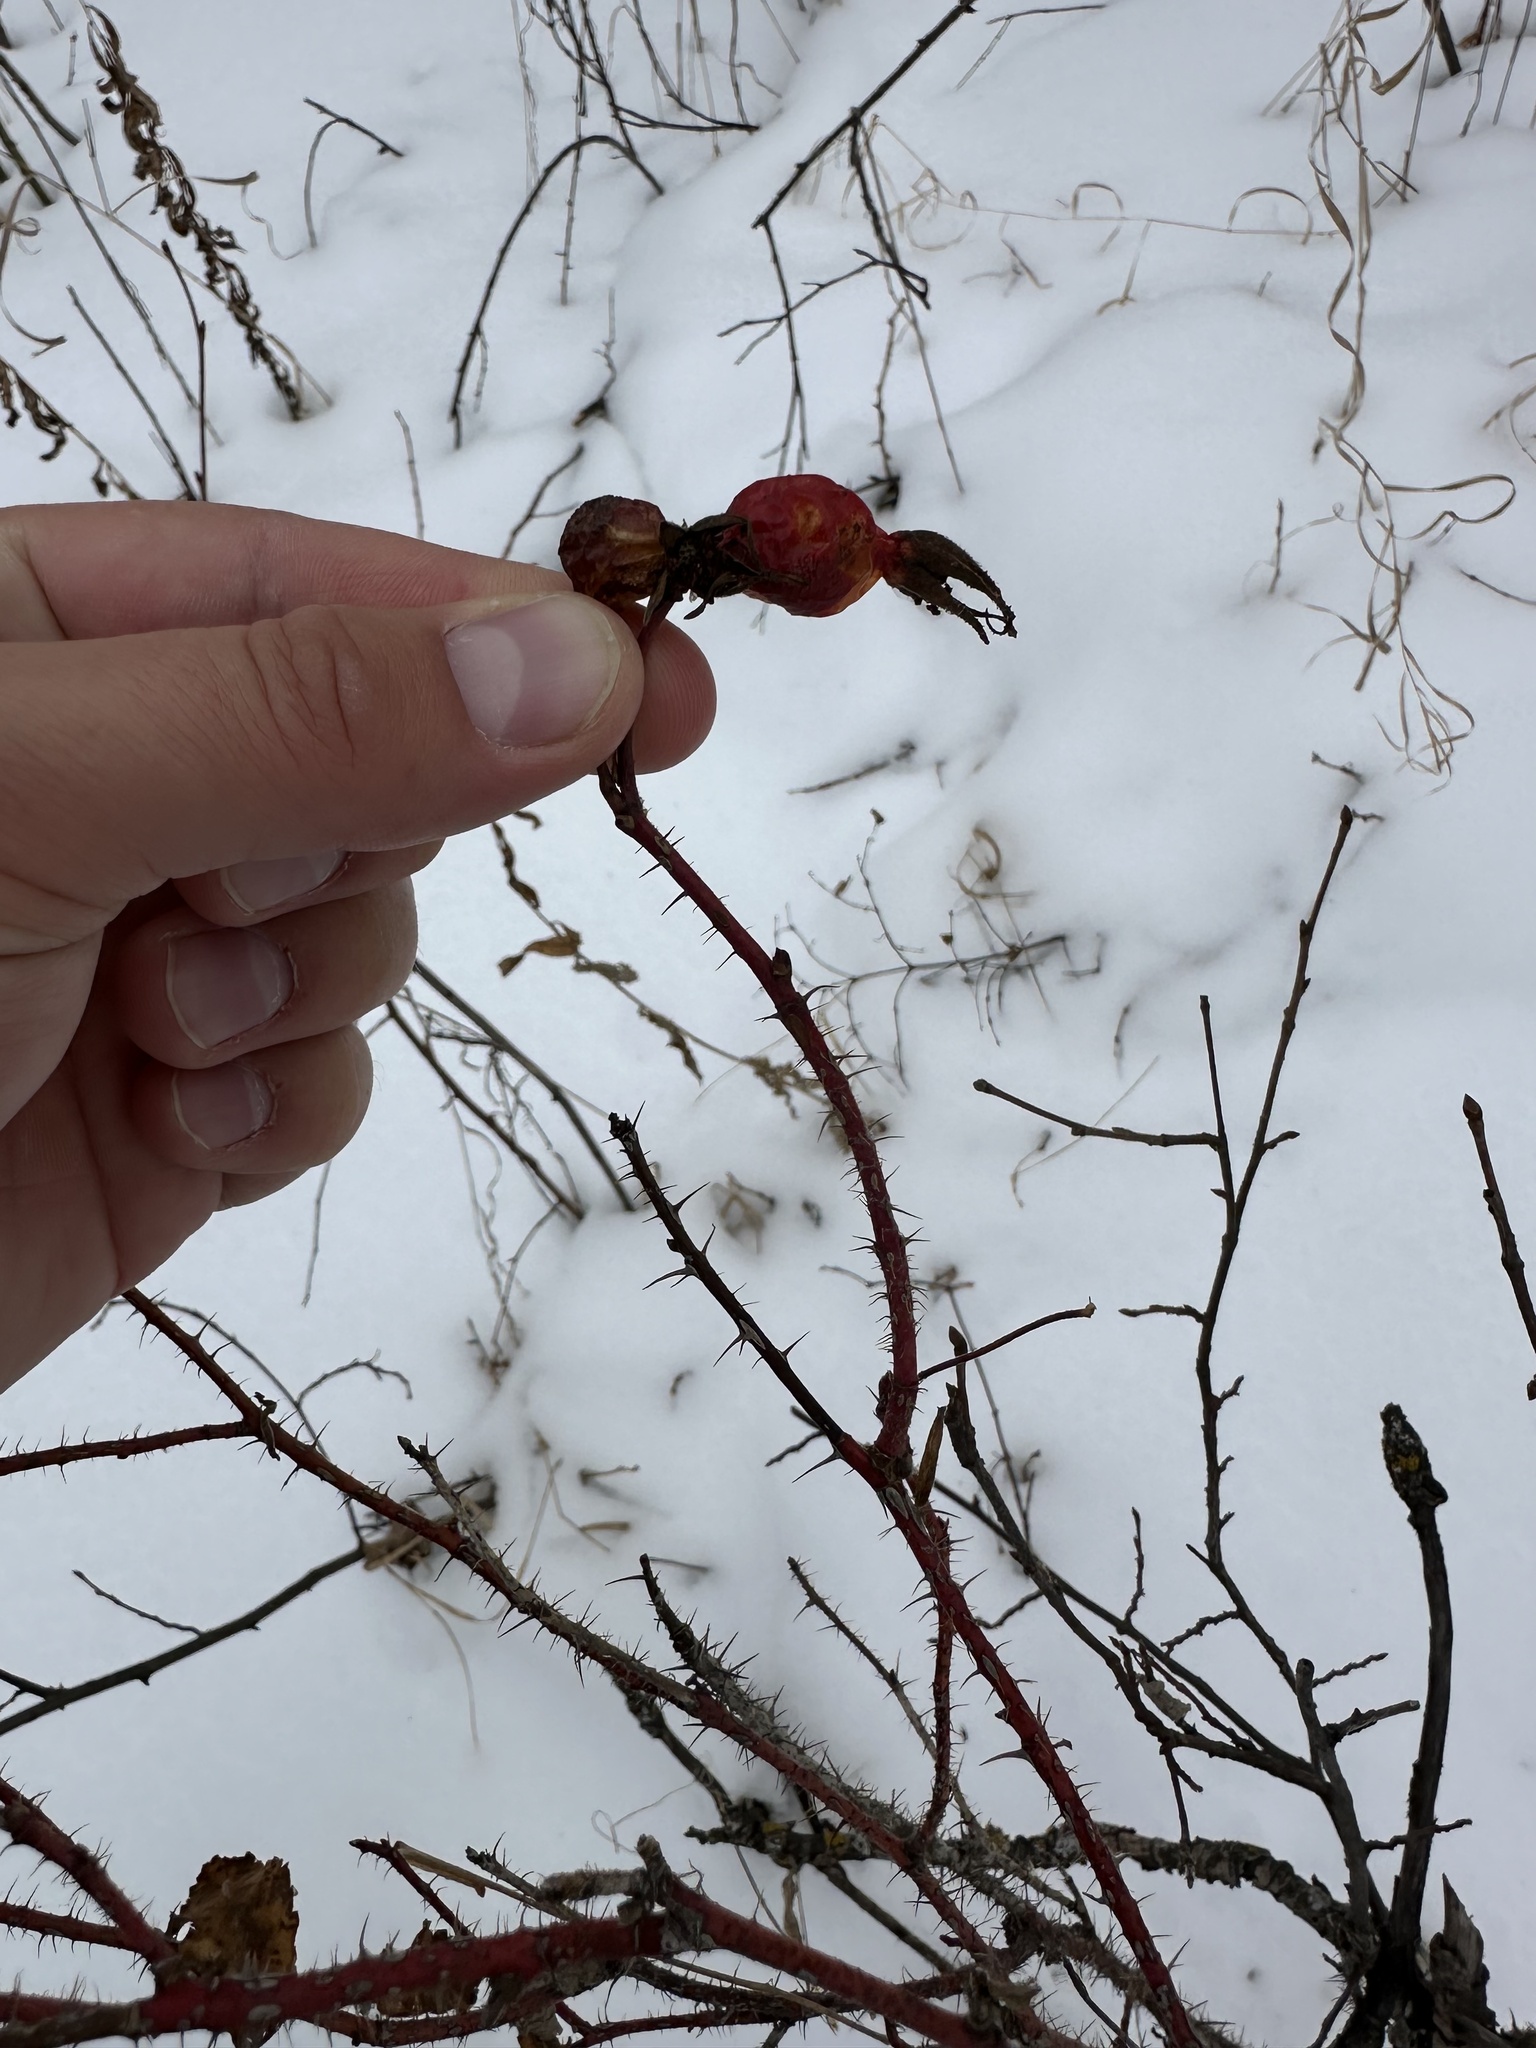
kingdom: Plantae
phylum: Tracheophyta
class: Magnoliopsida
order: Rosales
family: Rosaceae
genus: Rosa
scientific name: Rosa acicularis
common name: Prickly rose
